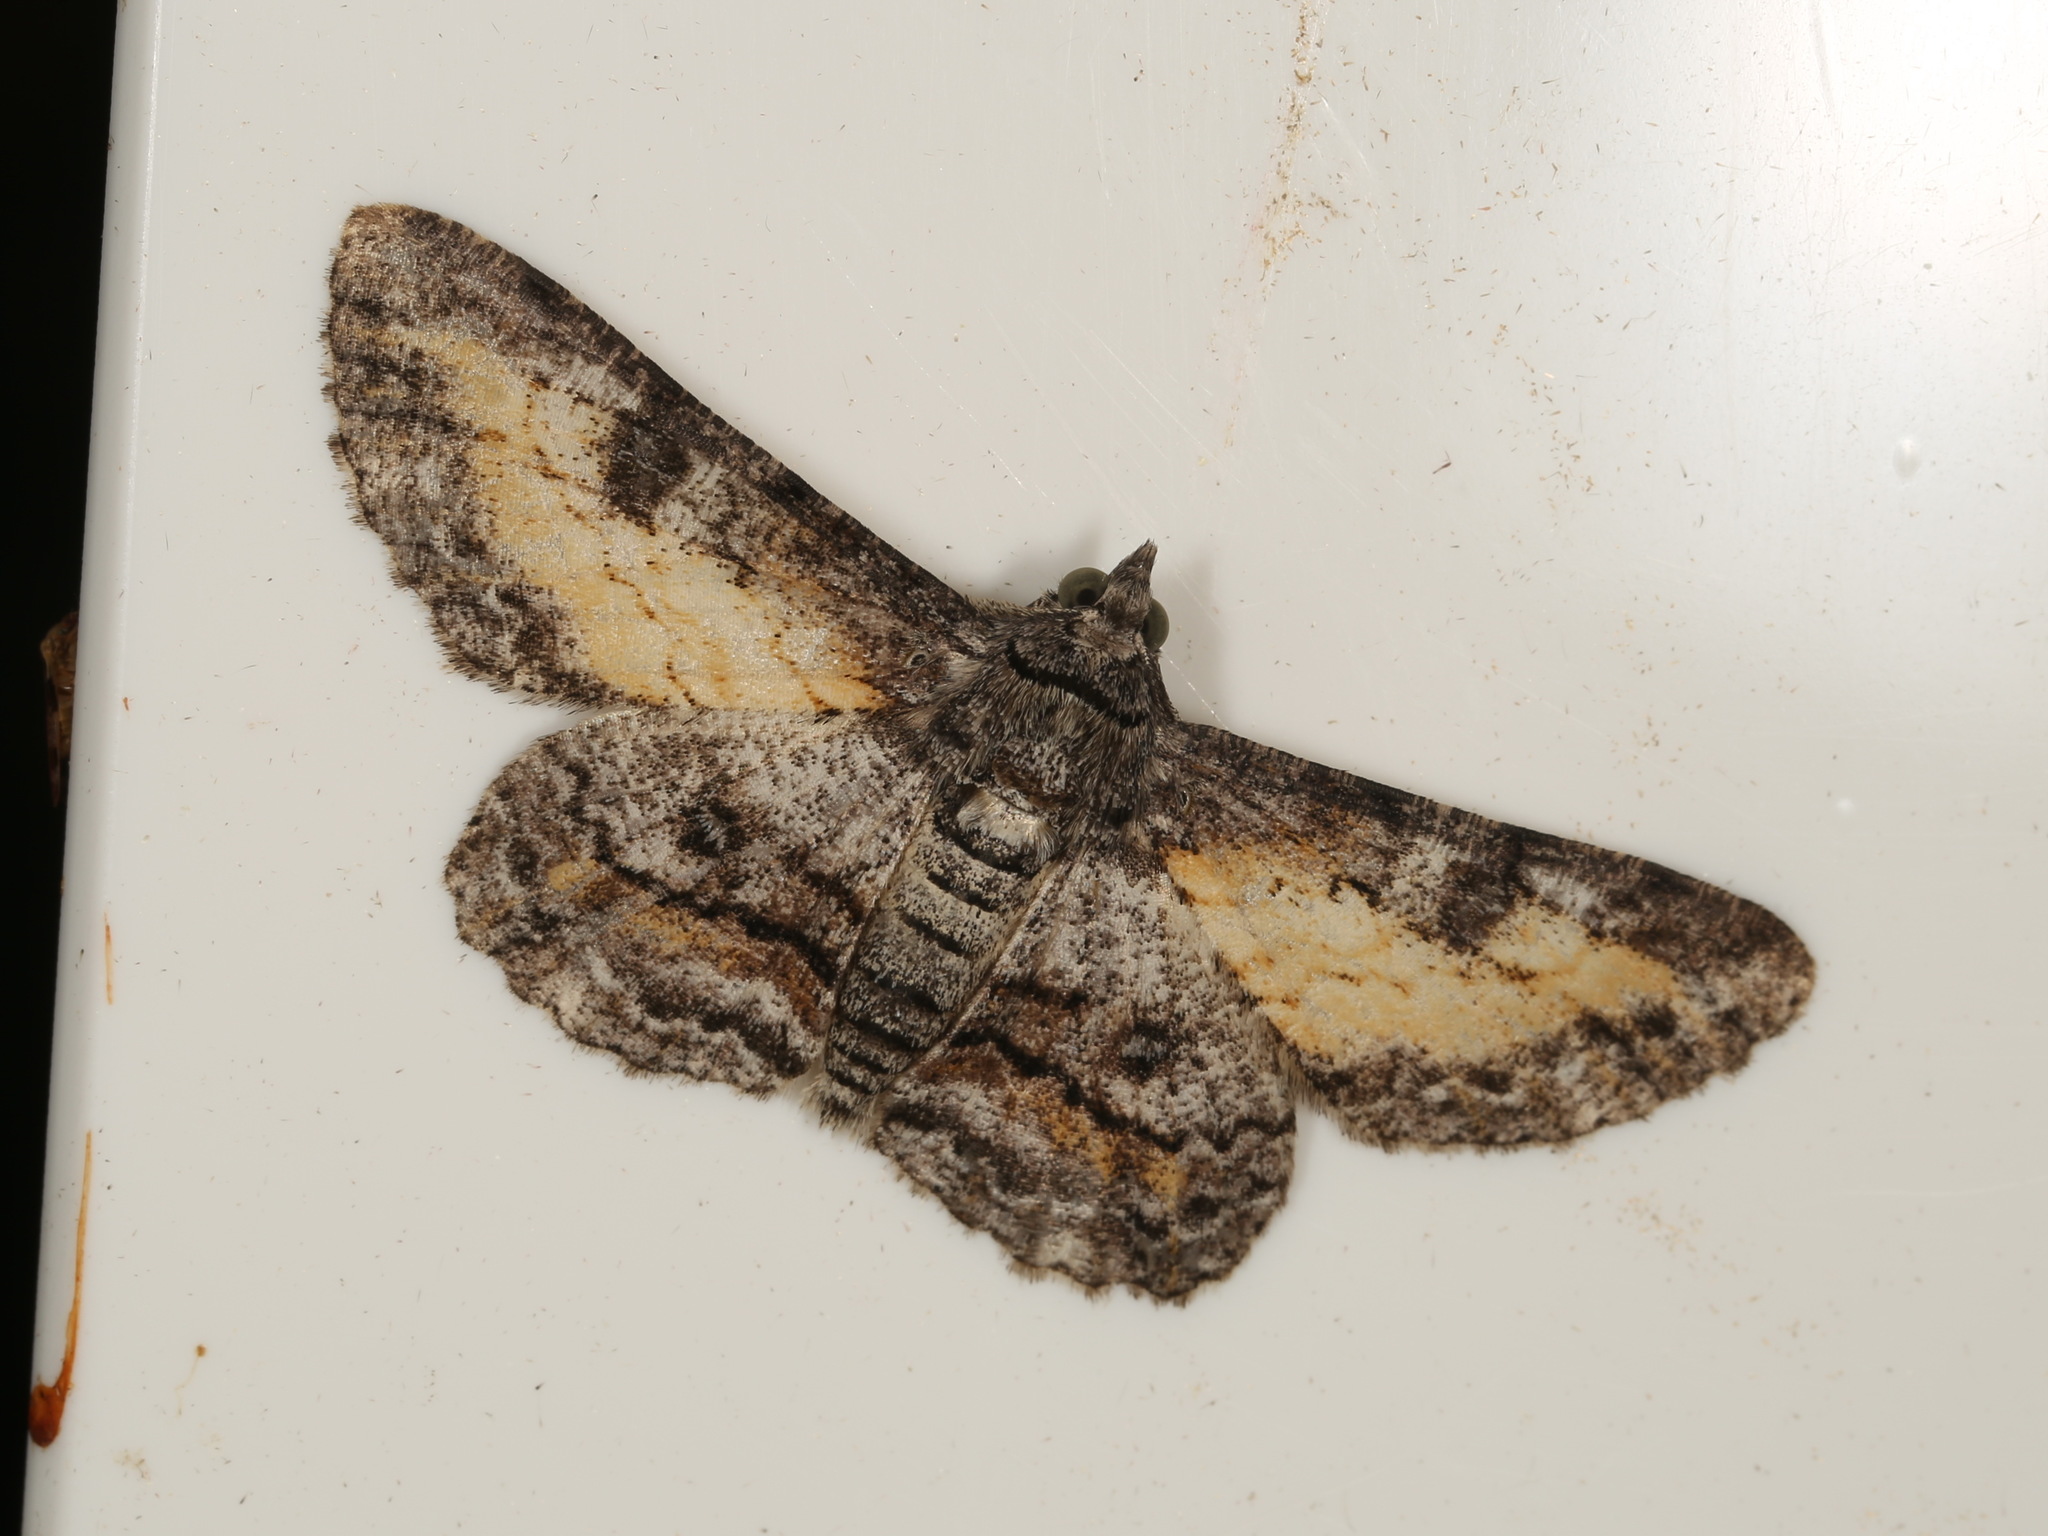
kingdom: Animalia
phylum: Arthropoda
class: Insecta
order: Lepidoptera
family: Geometridae
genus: Cleora
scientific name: Cleora injectaria
